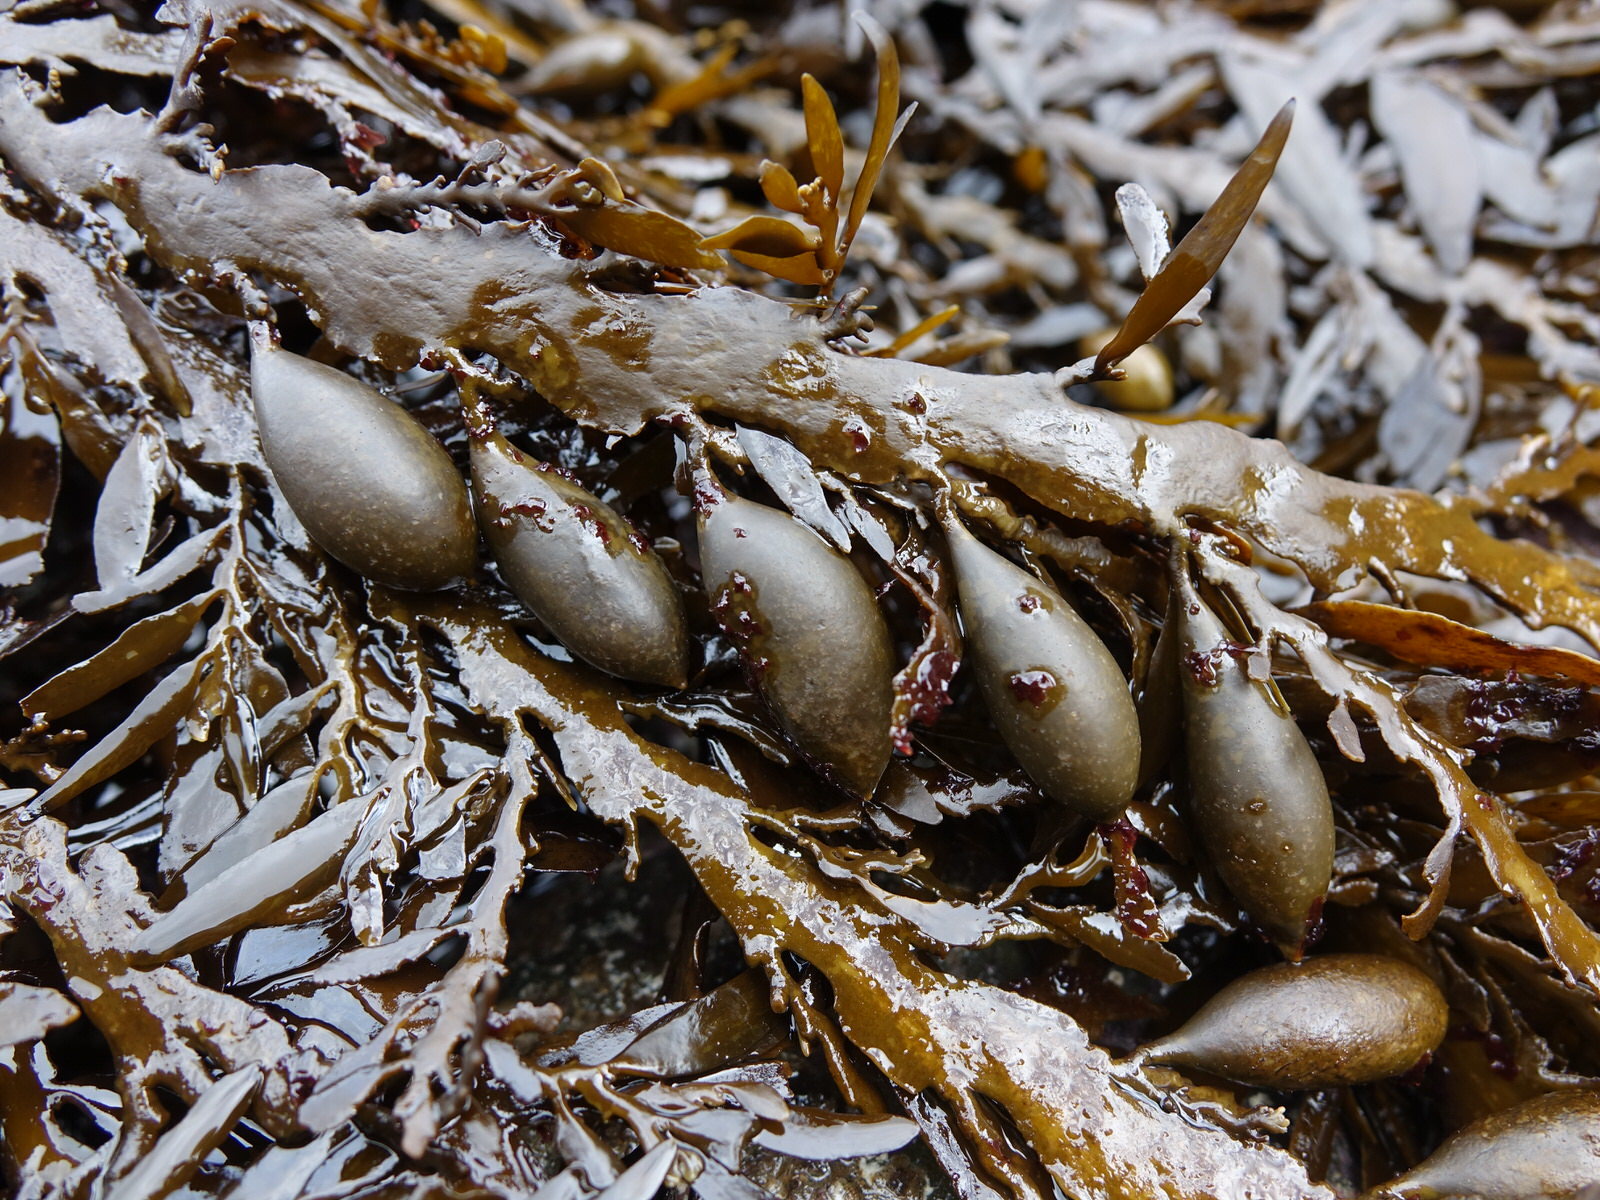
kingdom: Chromista
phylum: Ochrophyta
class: Phaeophyceae
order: Fucales
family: Sargassaceae
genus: Carpophyllum
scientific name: Carpophyllum maschalocarpum
